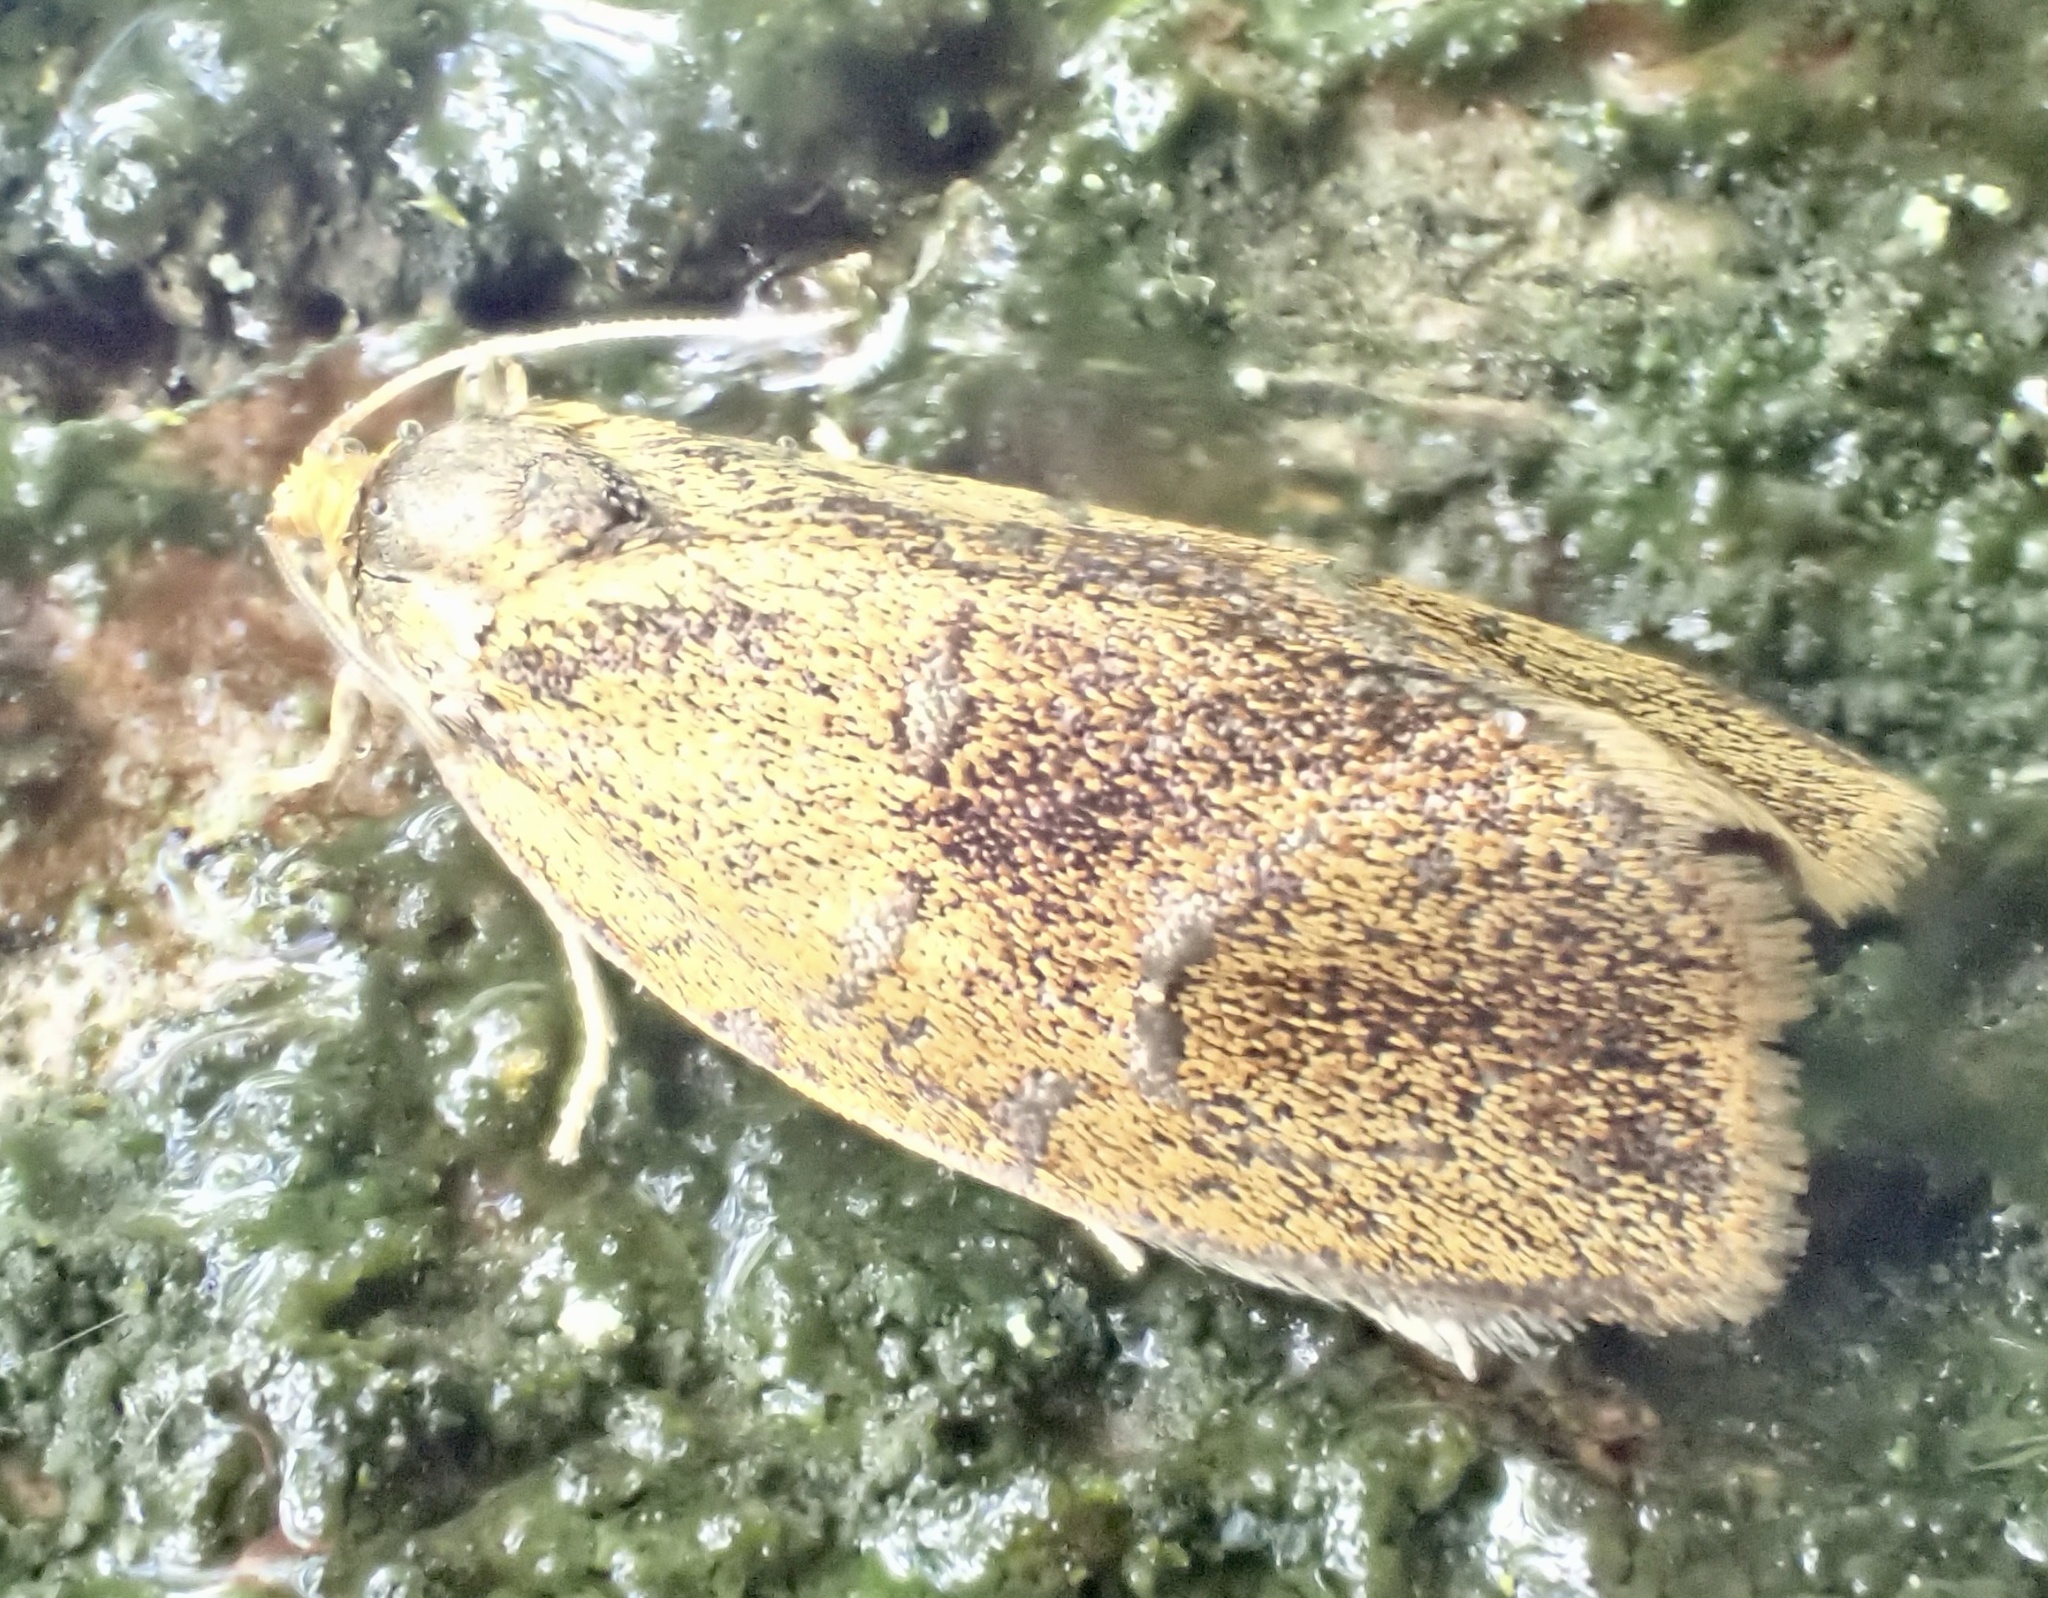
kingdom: Animalia
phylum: Arthropoda
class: Insecta
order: Lepidoptera
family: Tortricidae
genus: Ptycholoma
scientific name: Ptycholoma lecheana
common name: Leches twist moth
